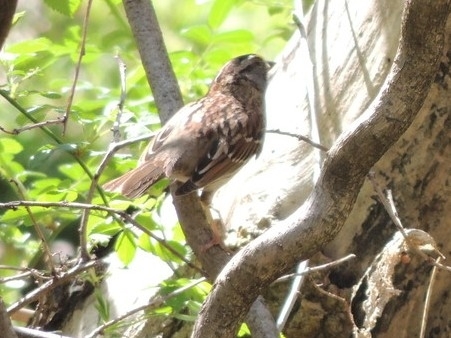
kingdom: Animalia
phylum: Chordata
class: Aves
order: Passeriformes
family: Passerellidae
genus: Zonotrichia
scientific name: Zonotrichia albicollis
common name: White-throated sparrow
